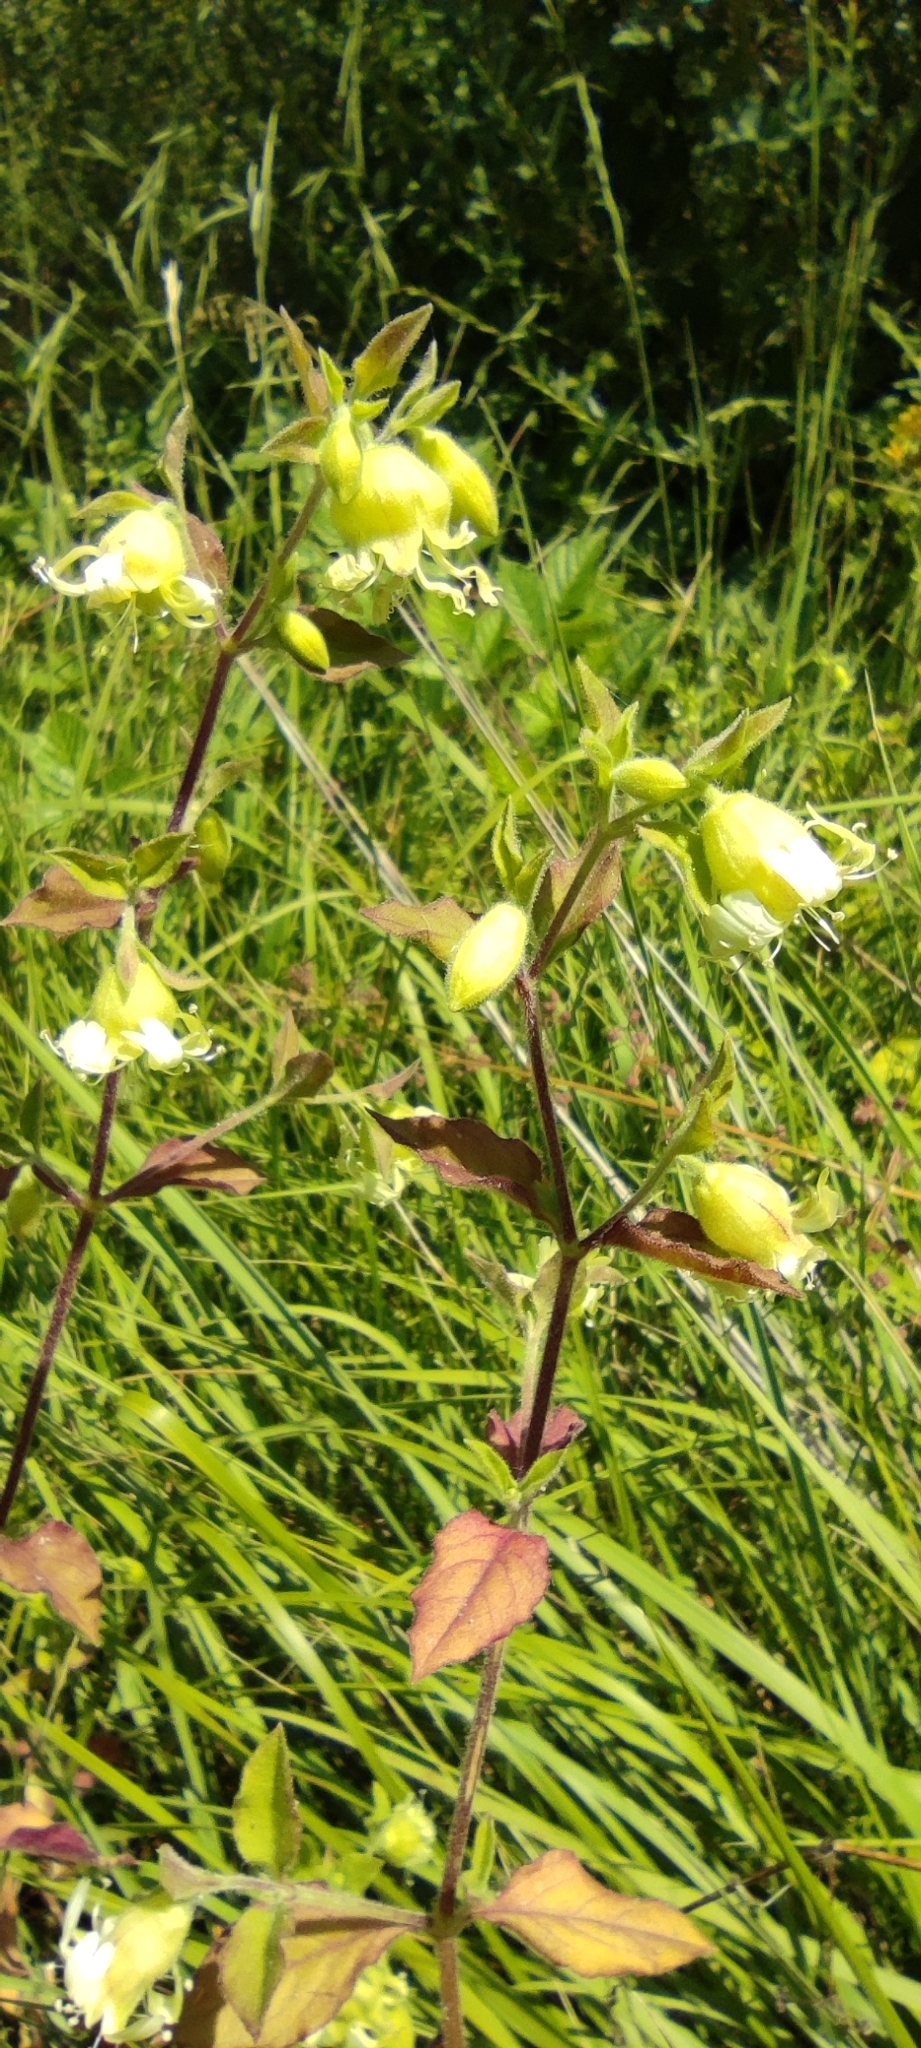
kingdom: Plantae
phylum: Tracheophyta
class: Magnoliopsida
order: Caryophyllales
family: Caryophyllaceae
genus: Silene
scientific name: Silene baccifera
